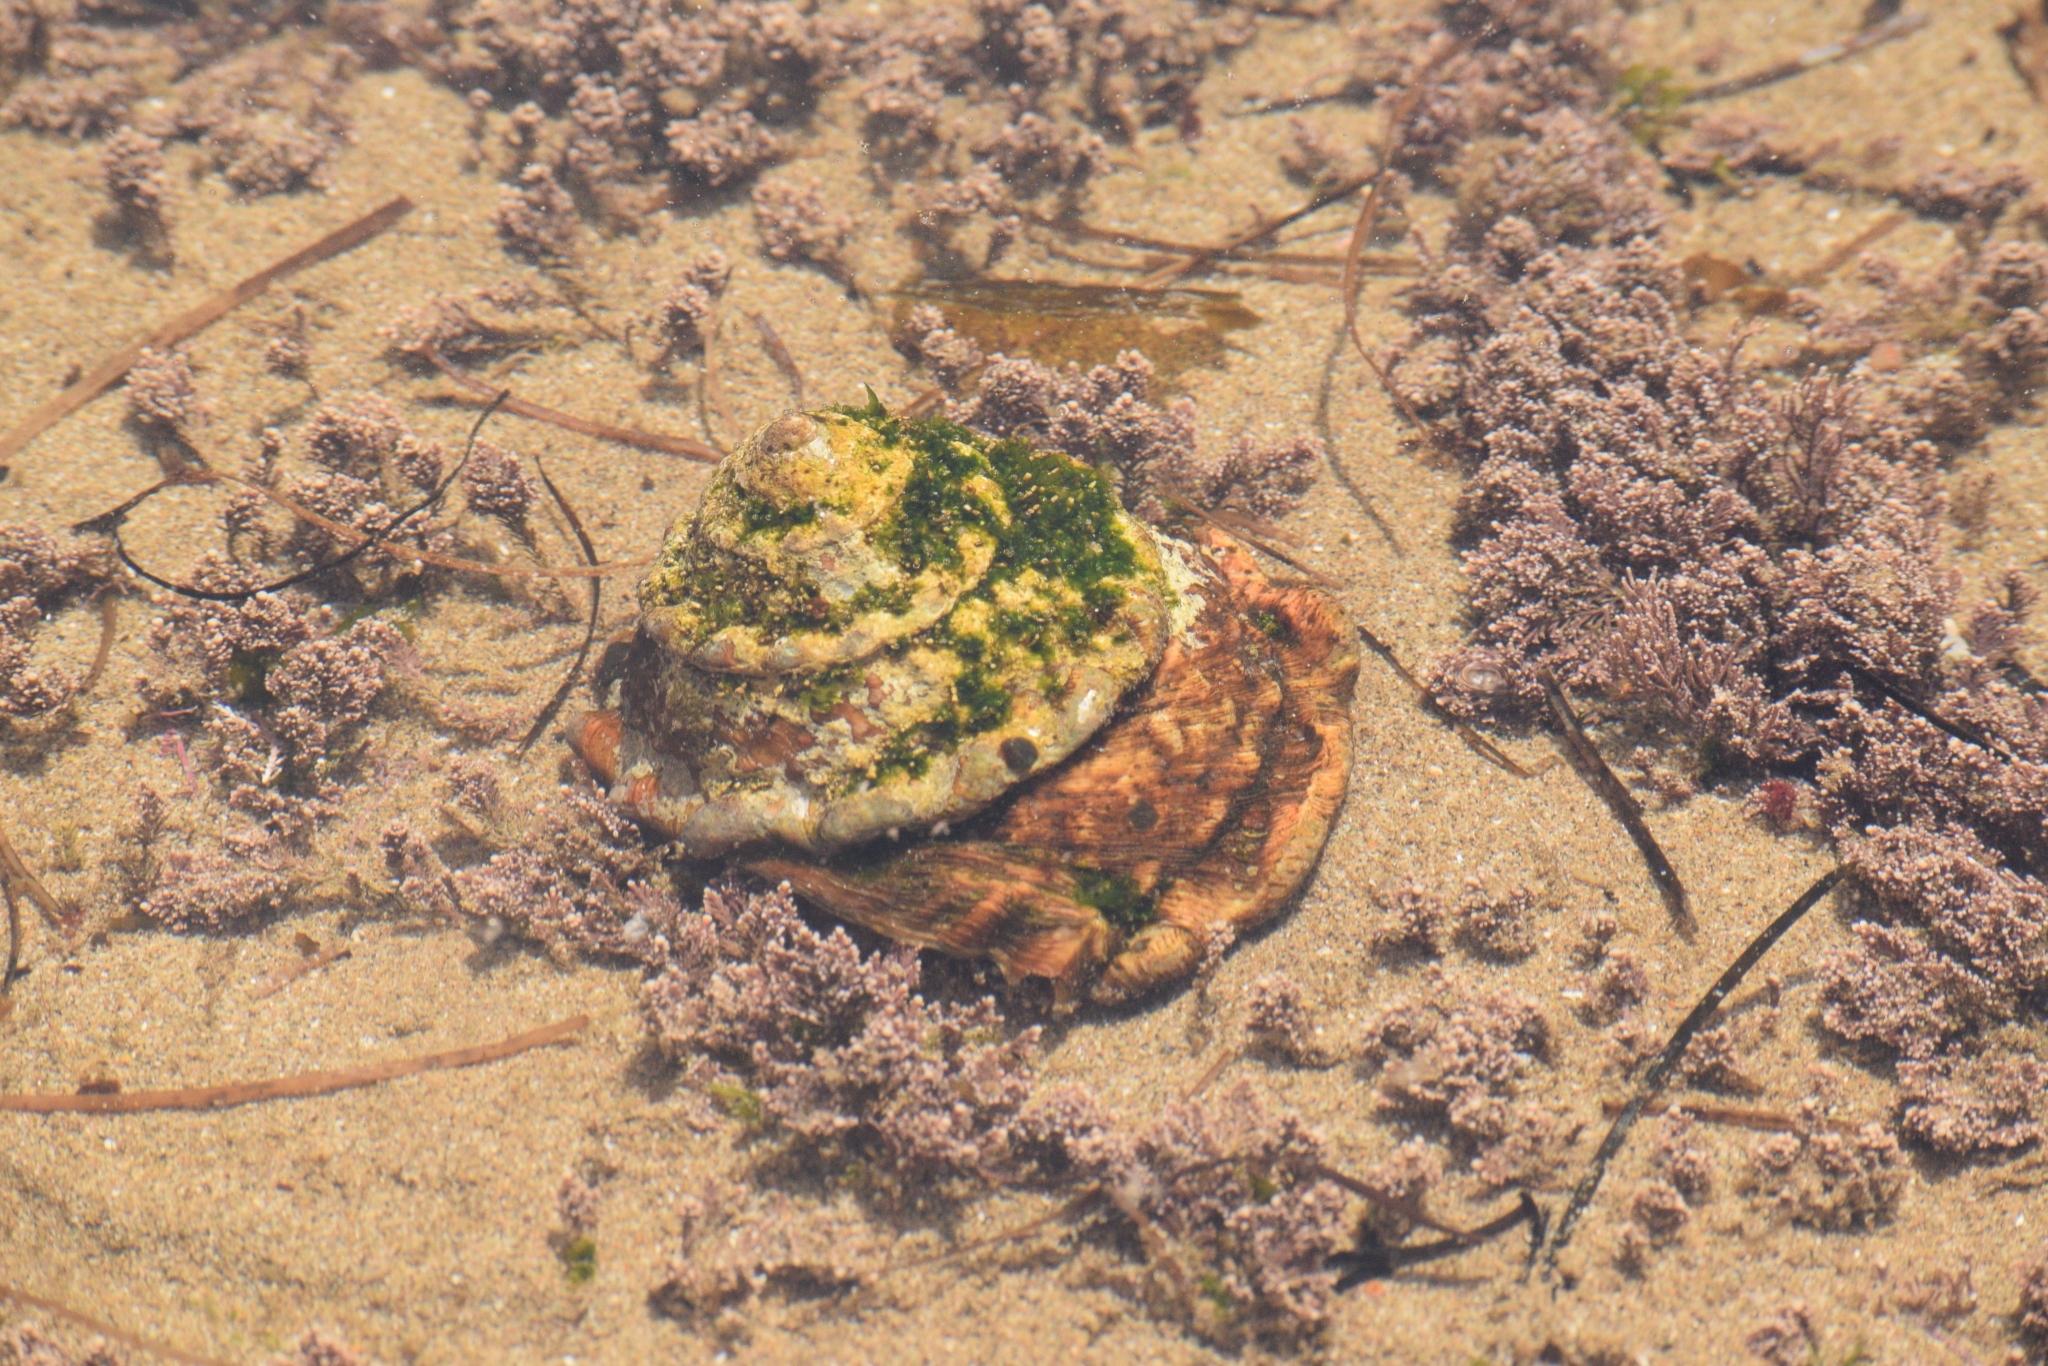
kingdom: Animalia
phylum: Mollusca
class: Gastropoda
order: Trochida
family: Turbinidae
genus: Megastraea
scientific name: Megastraea undosa
